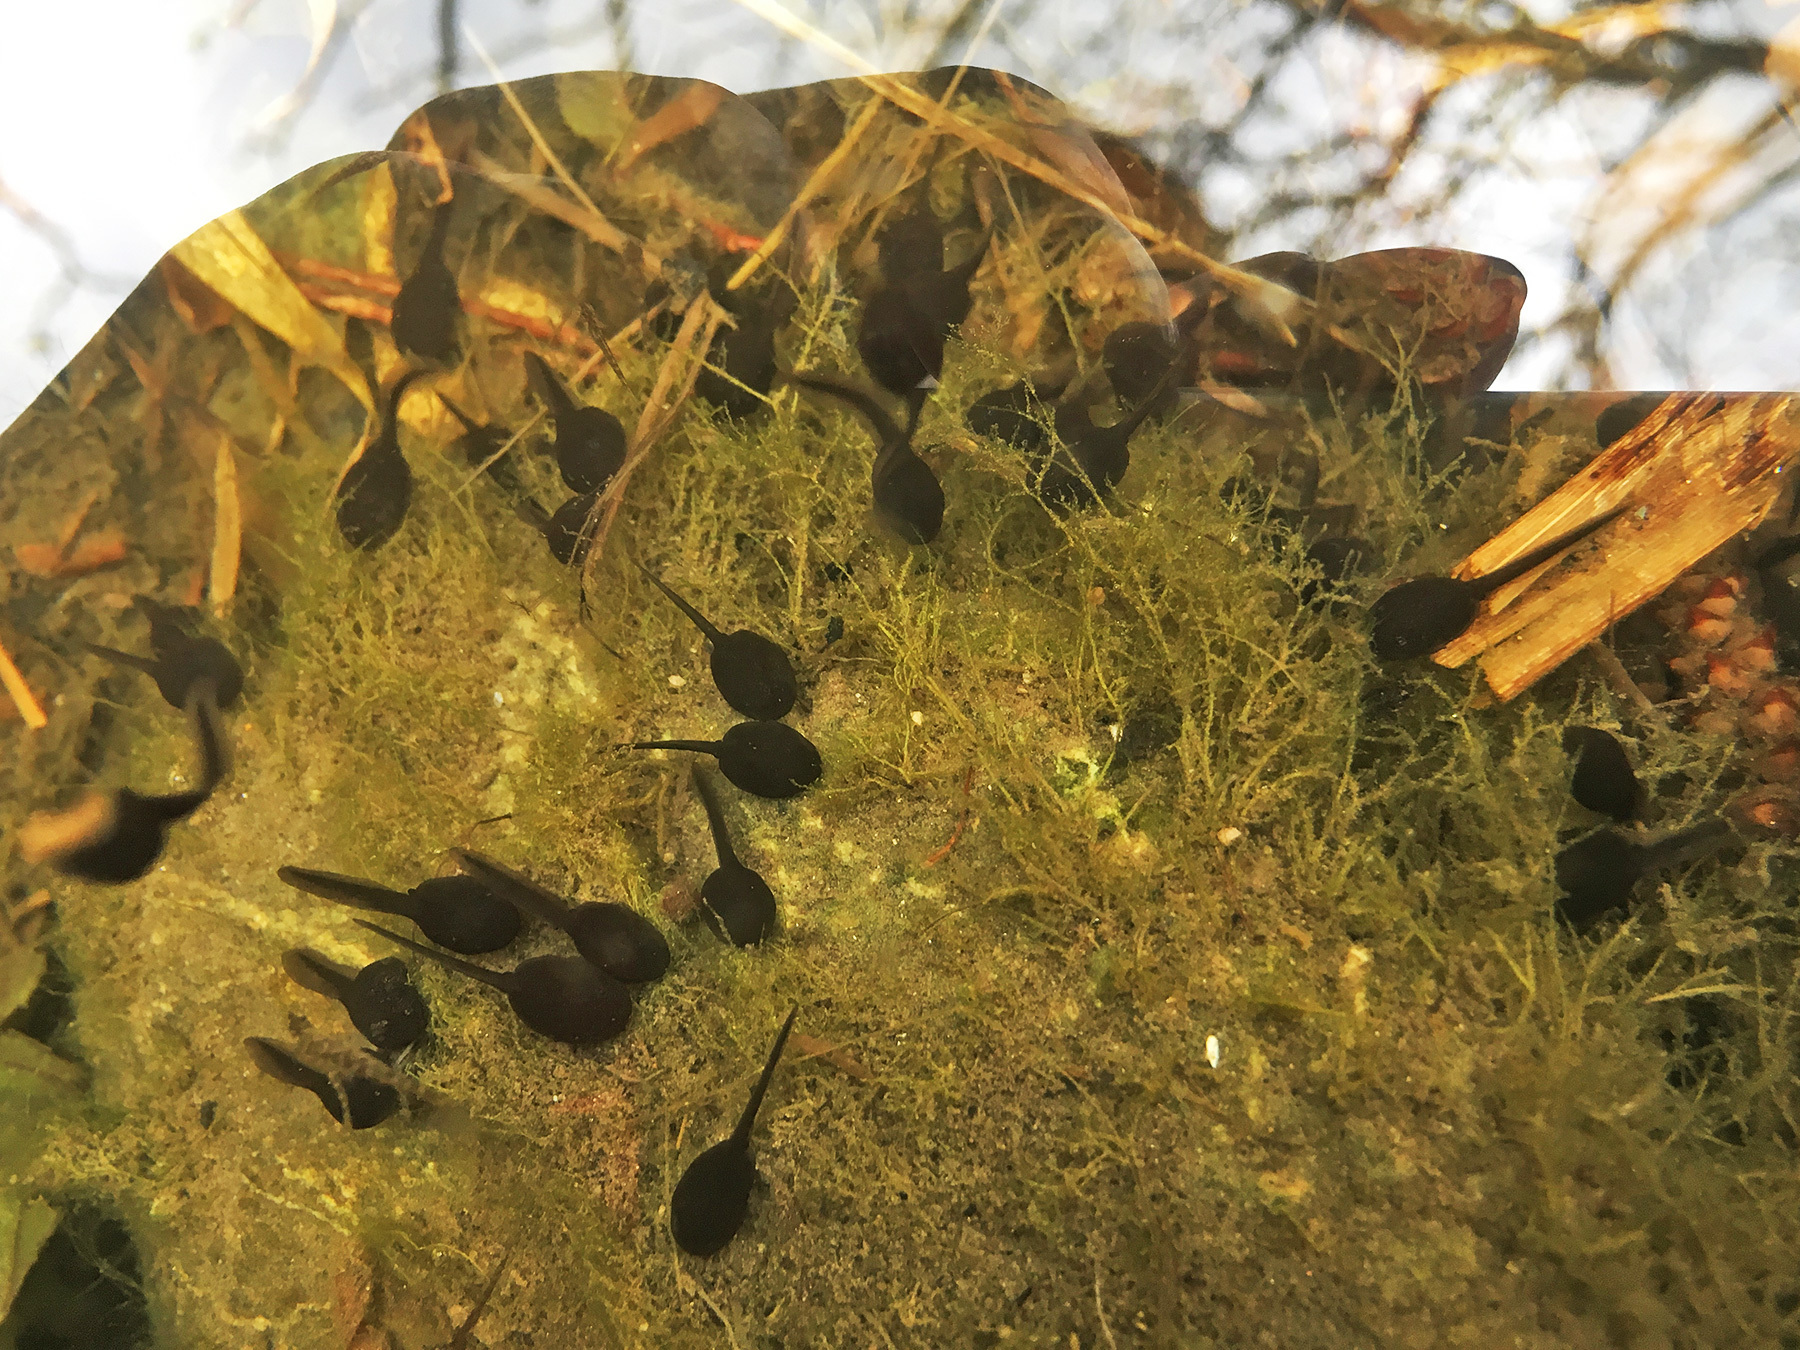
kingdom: Animalia
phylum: Chordata
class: Amphibia
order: Anura
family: Bufonidae
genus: Bufo
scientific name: Bufo bufo
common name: Common toad
